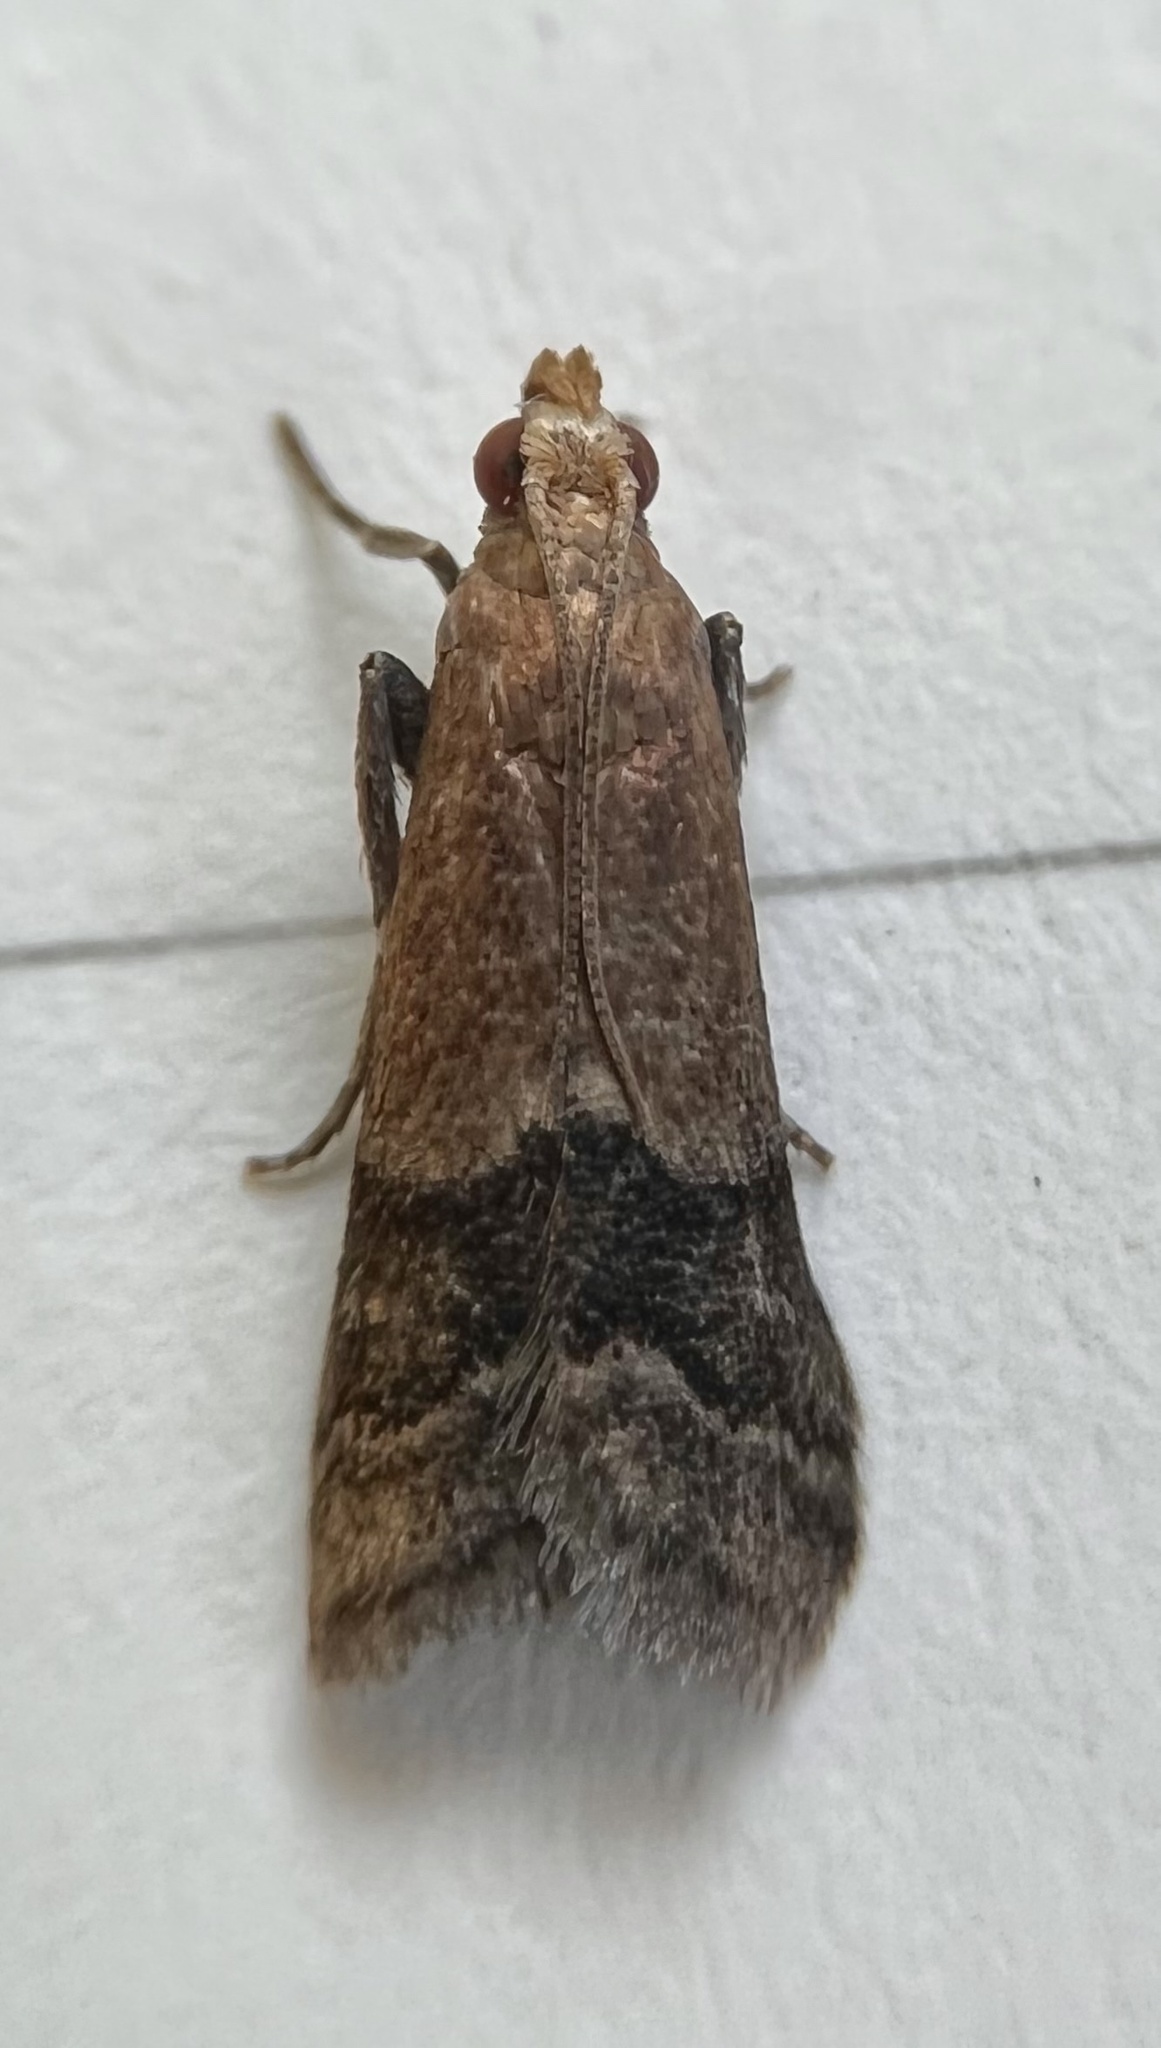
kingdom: Animalia
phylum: Arthropoda
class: Insecta
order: Lepidoptera
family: Pyralidae
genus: Eulogia
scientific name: Eulogia ochrifrontella
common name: Broad-banded eulogia moth
